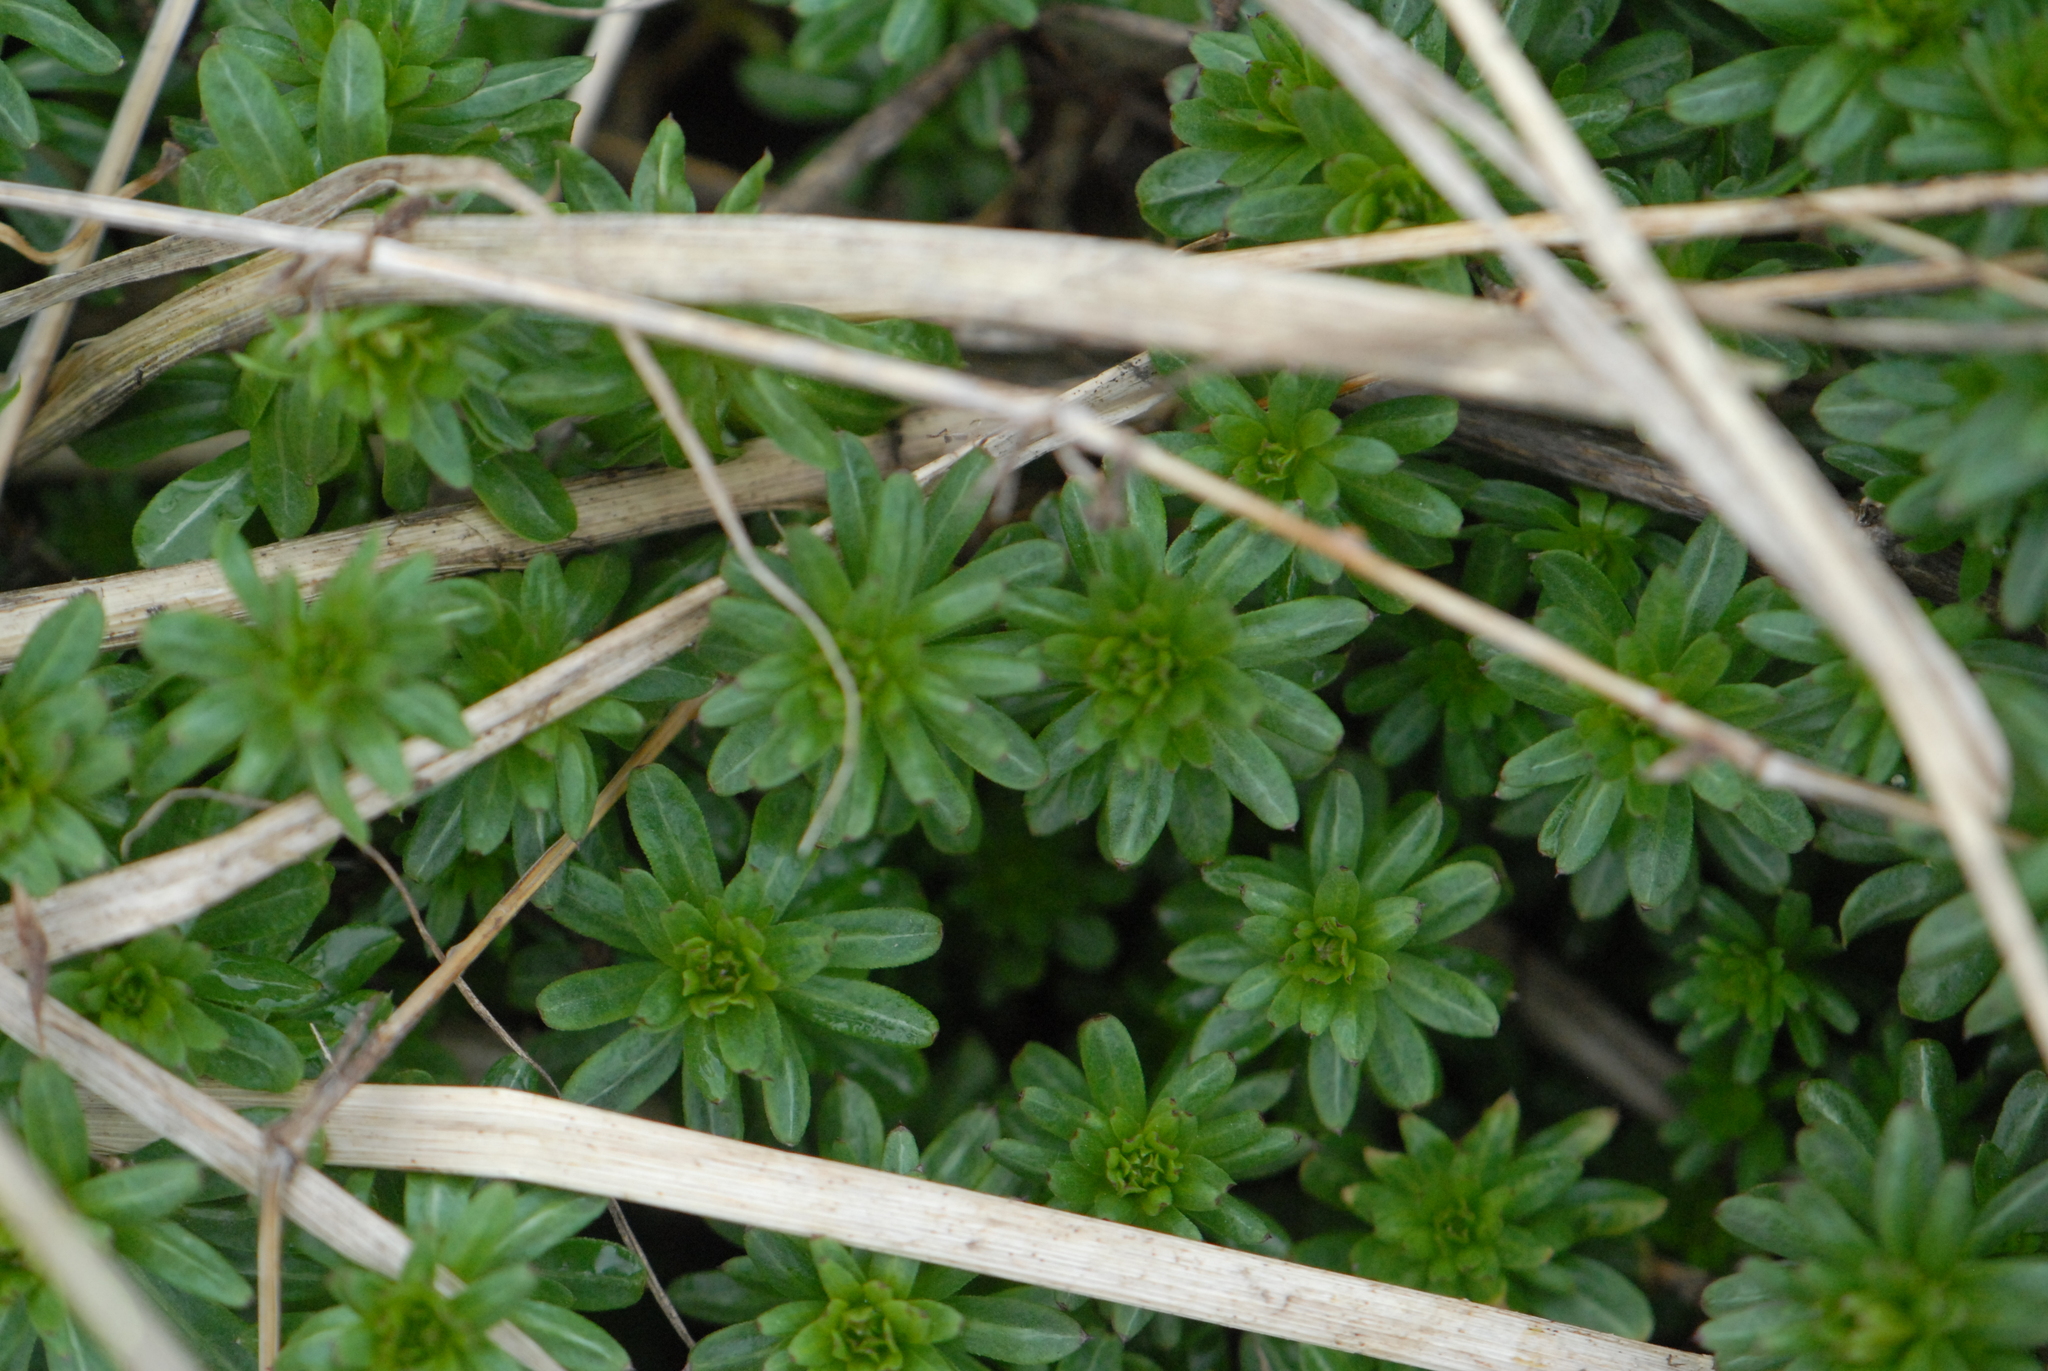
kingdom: Plantae
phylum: Tracheophyta
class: Magnoliopsida
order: Gentianales
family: Rubiaceae
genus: Galium
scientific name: Galium mollugo
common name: Hedge bedstraw
